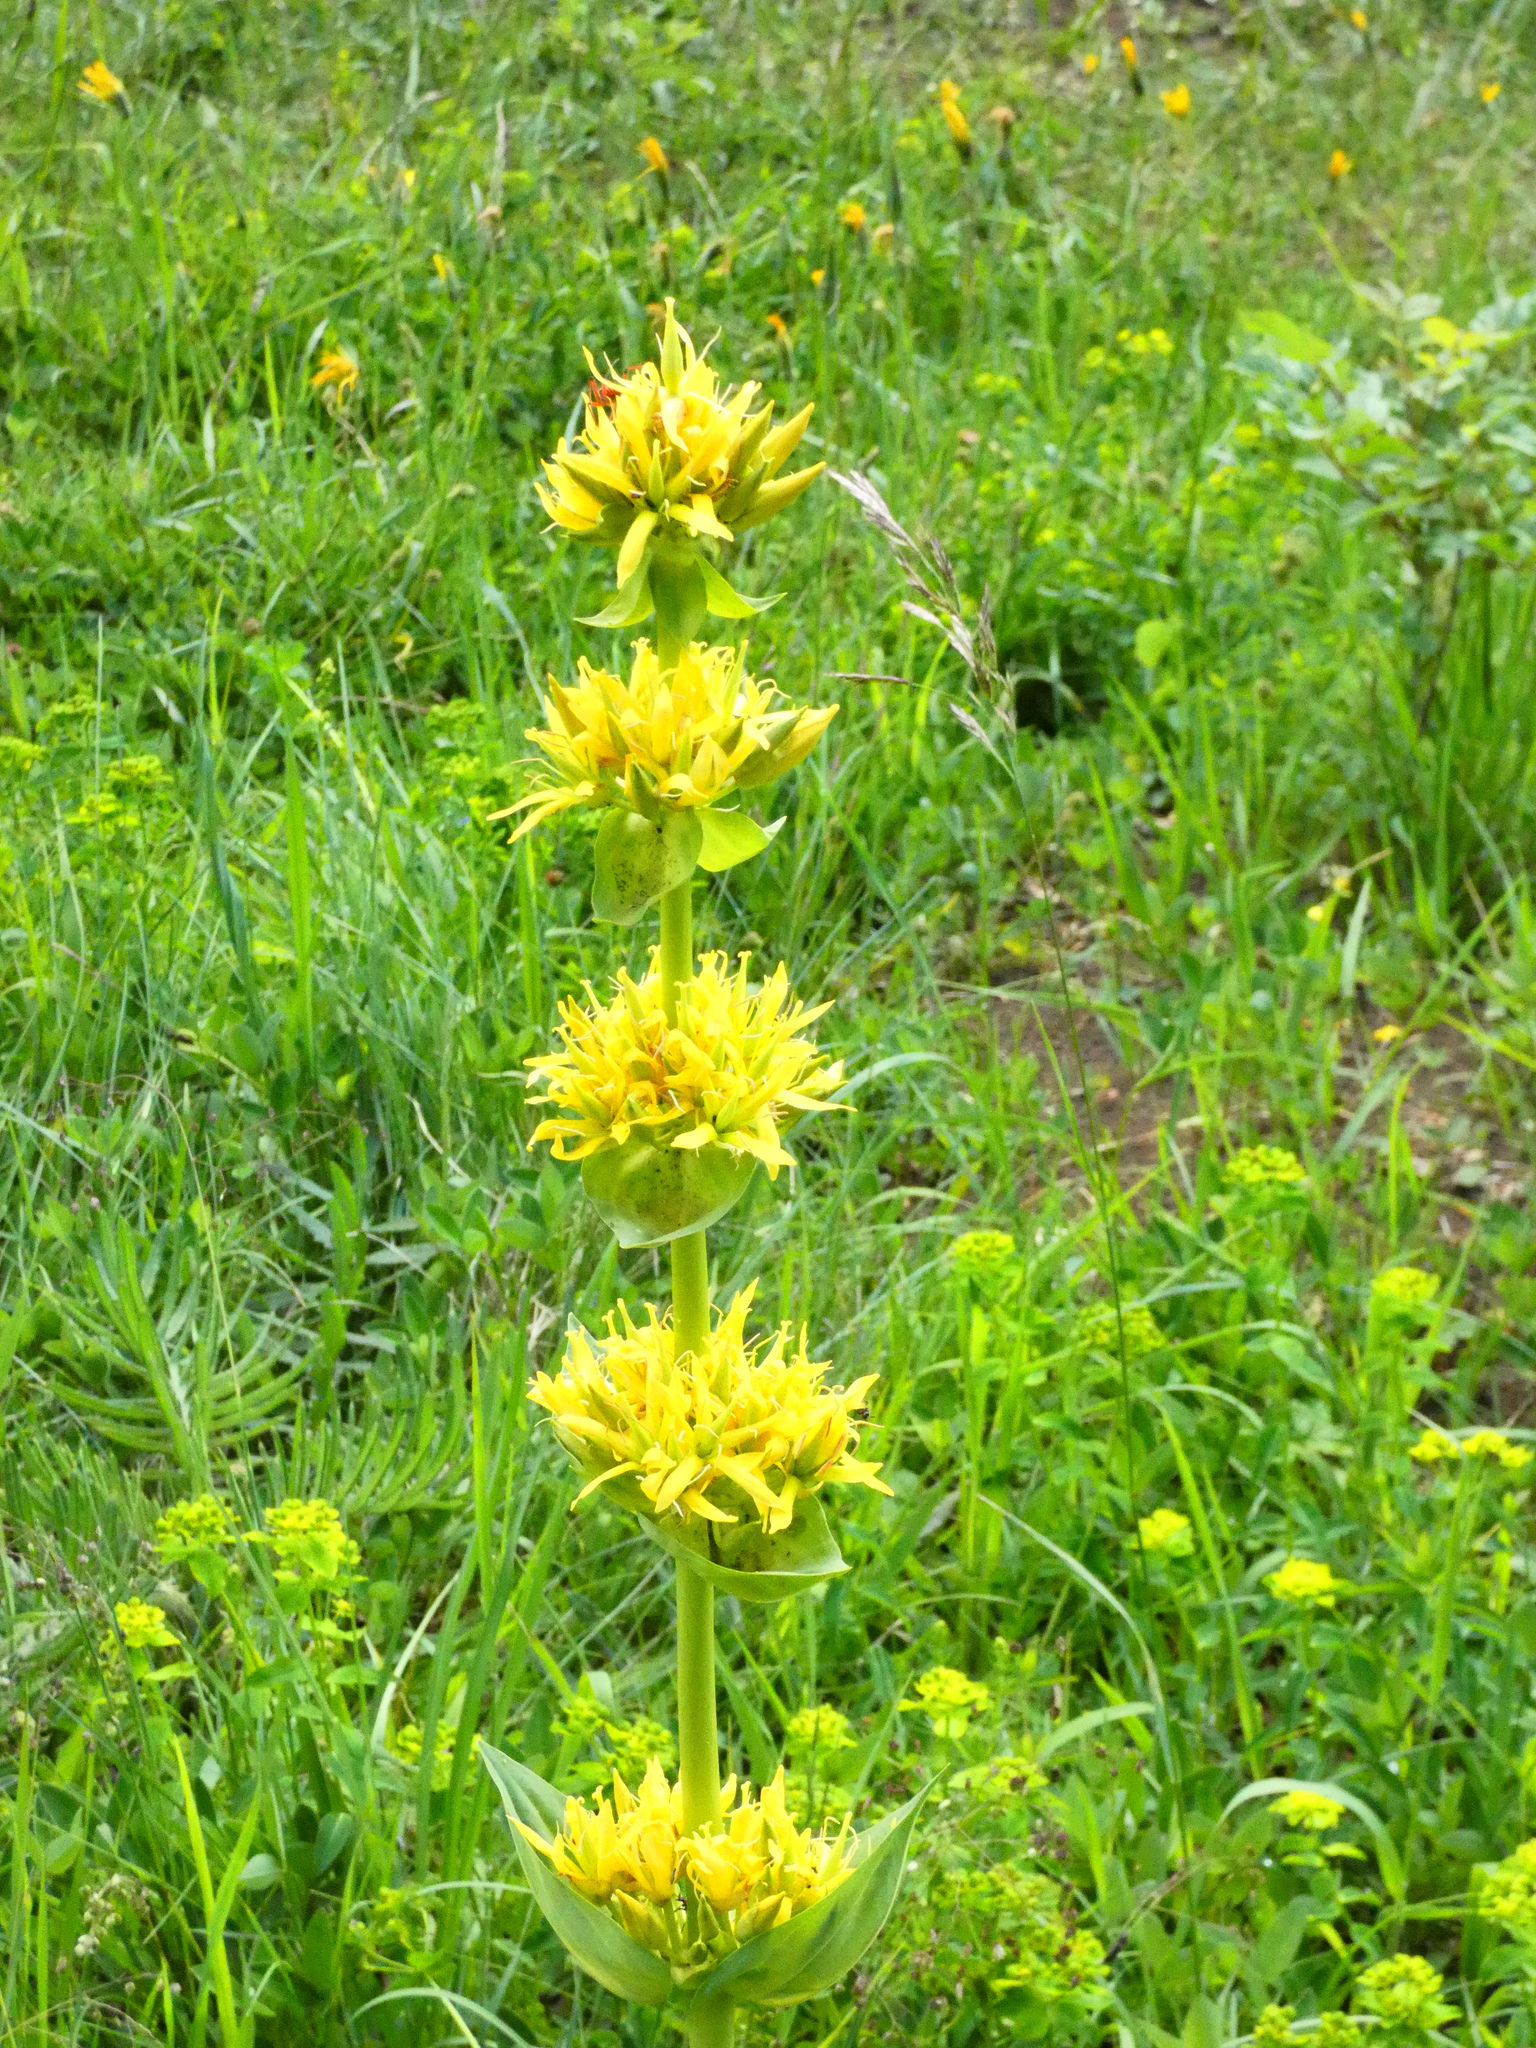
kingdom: Plantae
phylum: Tracheophyta
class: Magnoliopsida
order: Gentianales
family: Gentianaceae
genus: Gentiana
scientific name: Gentiana lutea
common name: Great yellow gentian
